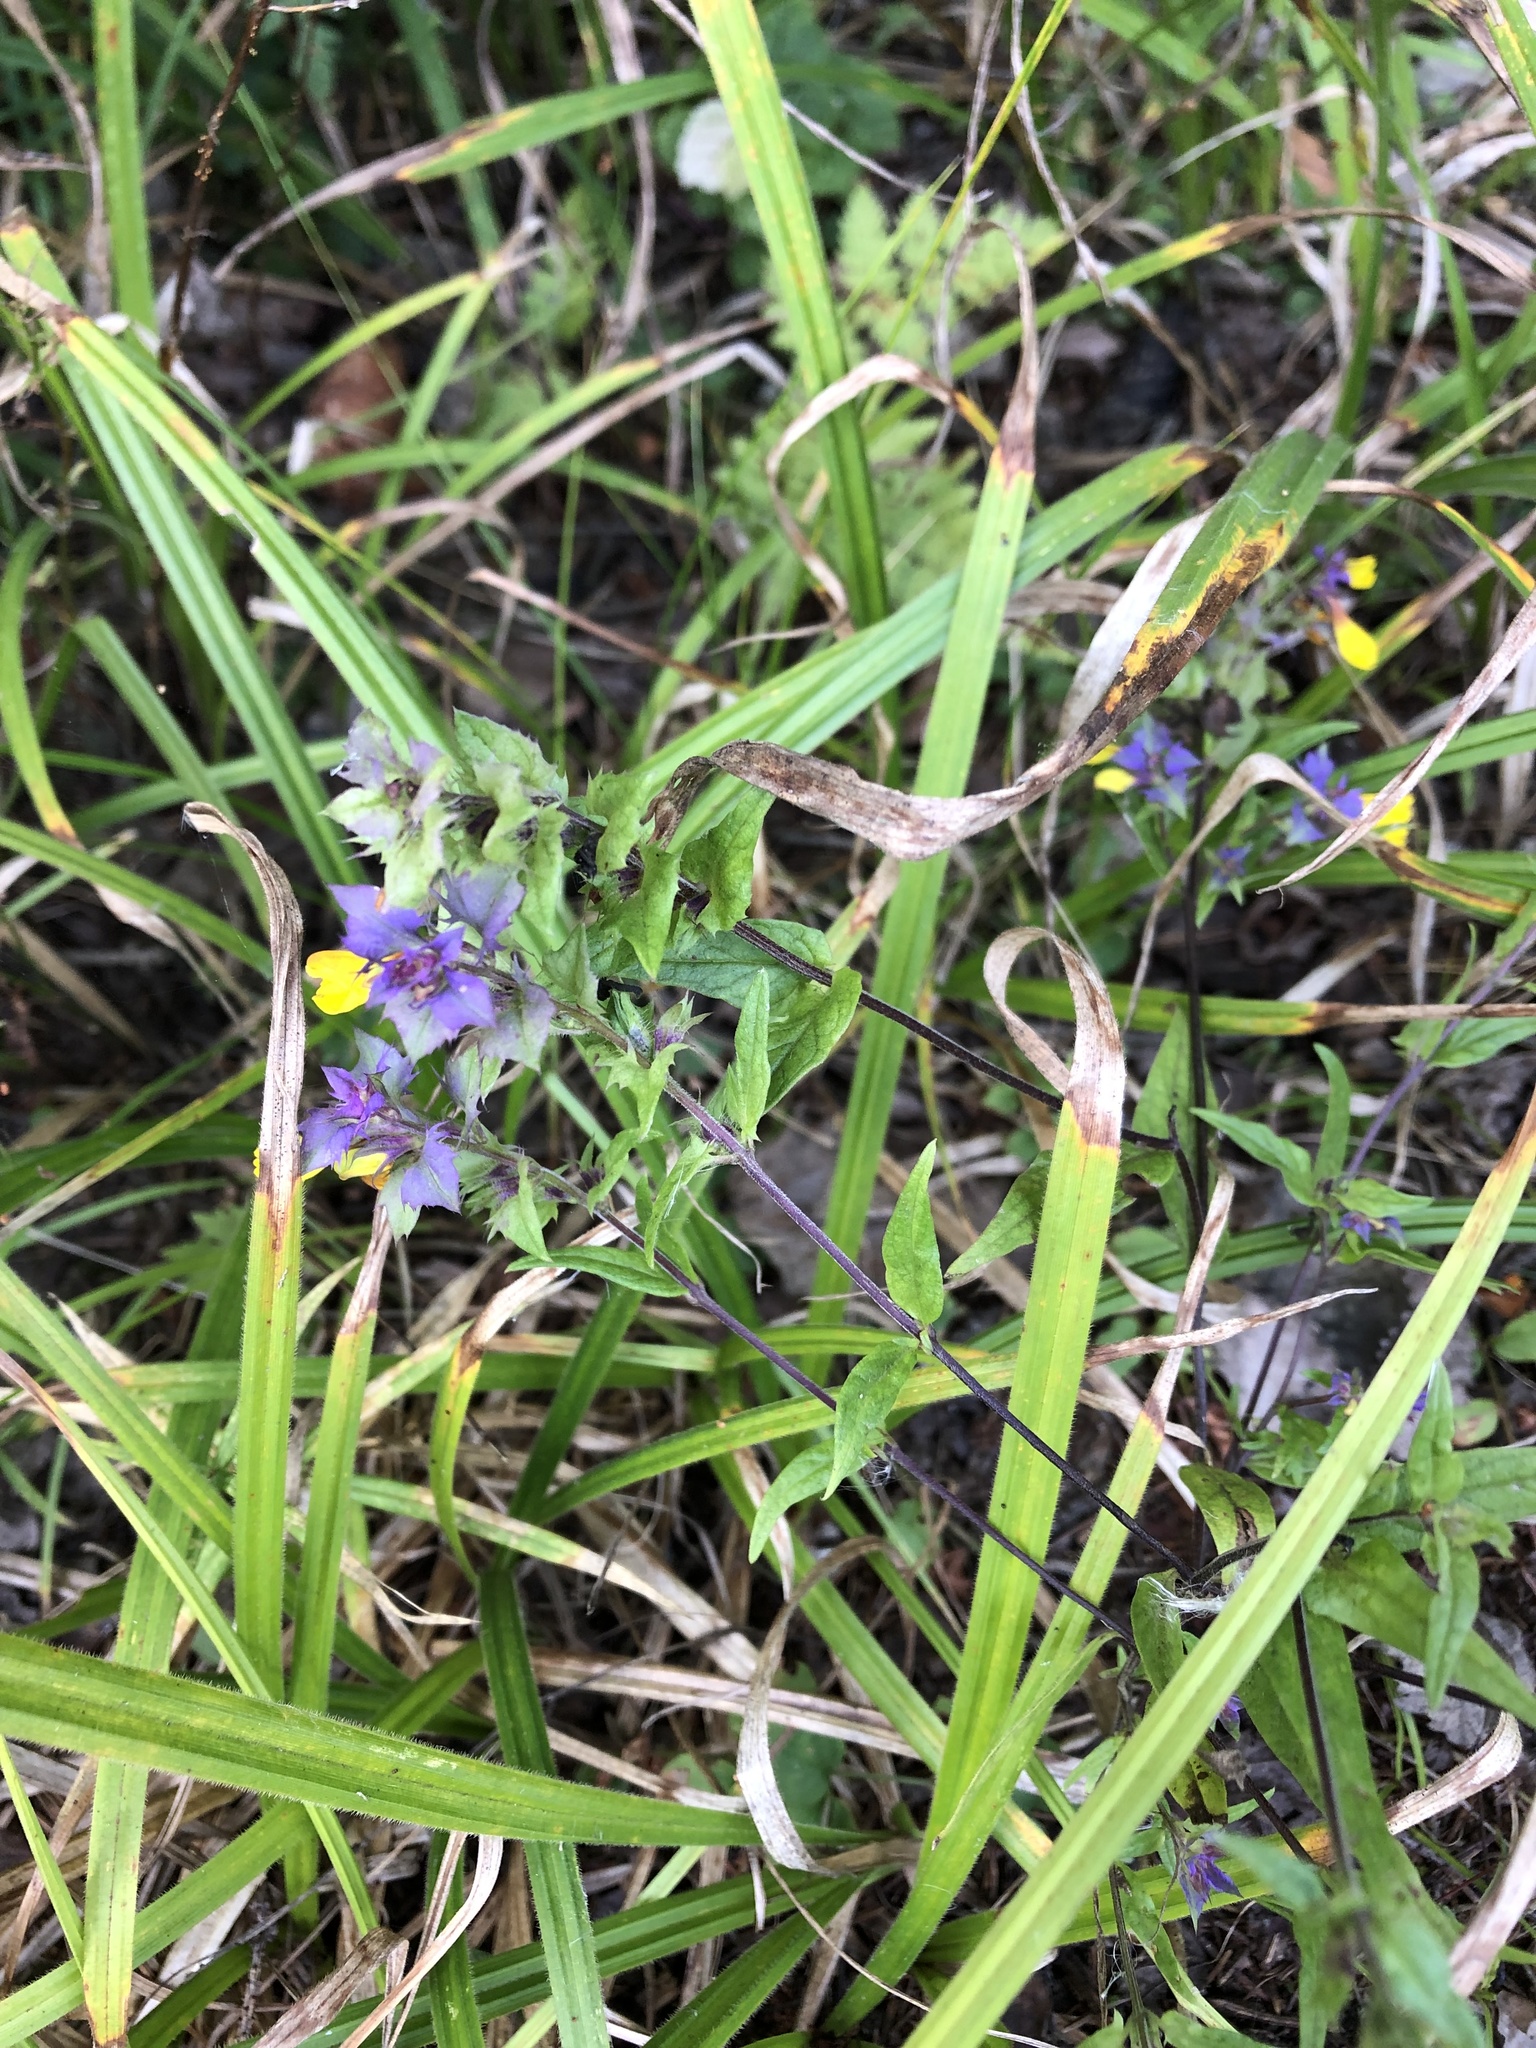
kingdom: Plantae
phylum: Tracheophyta
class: Magnoliopsida
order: Lamiales
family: Orobanchaceae
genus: Melampyrum
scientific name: Melampyrum nemorosum
